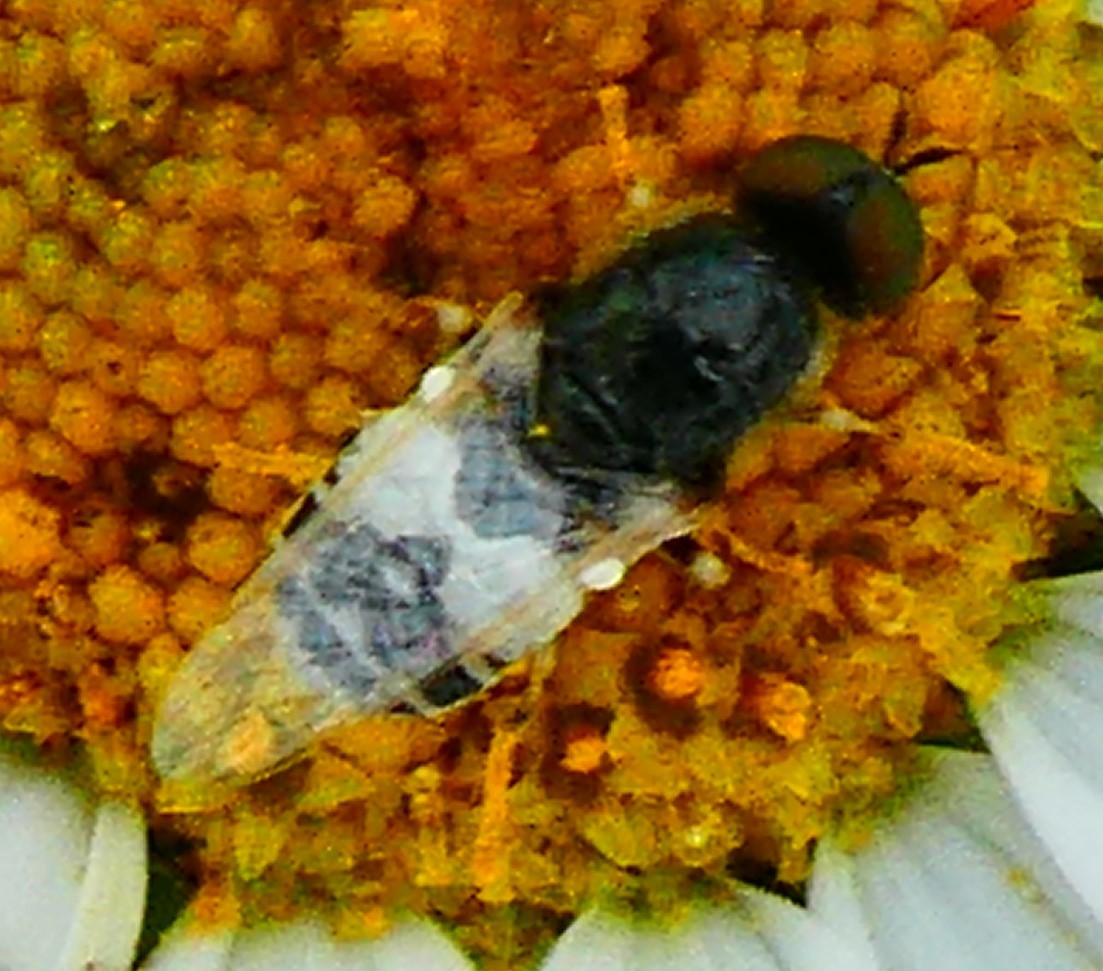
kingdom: Animalia
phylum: Arthropoda
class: Insecta
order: Diptera
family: Stratiomyidae
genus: Nemotelus
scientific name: Nemotelus notatus
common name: Flecked snout
